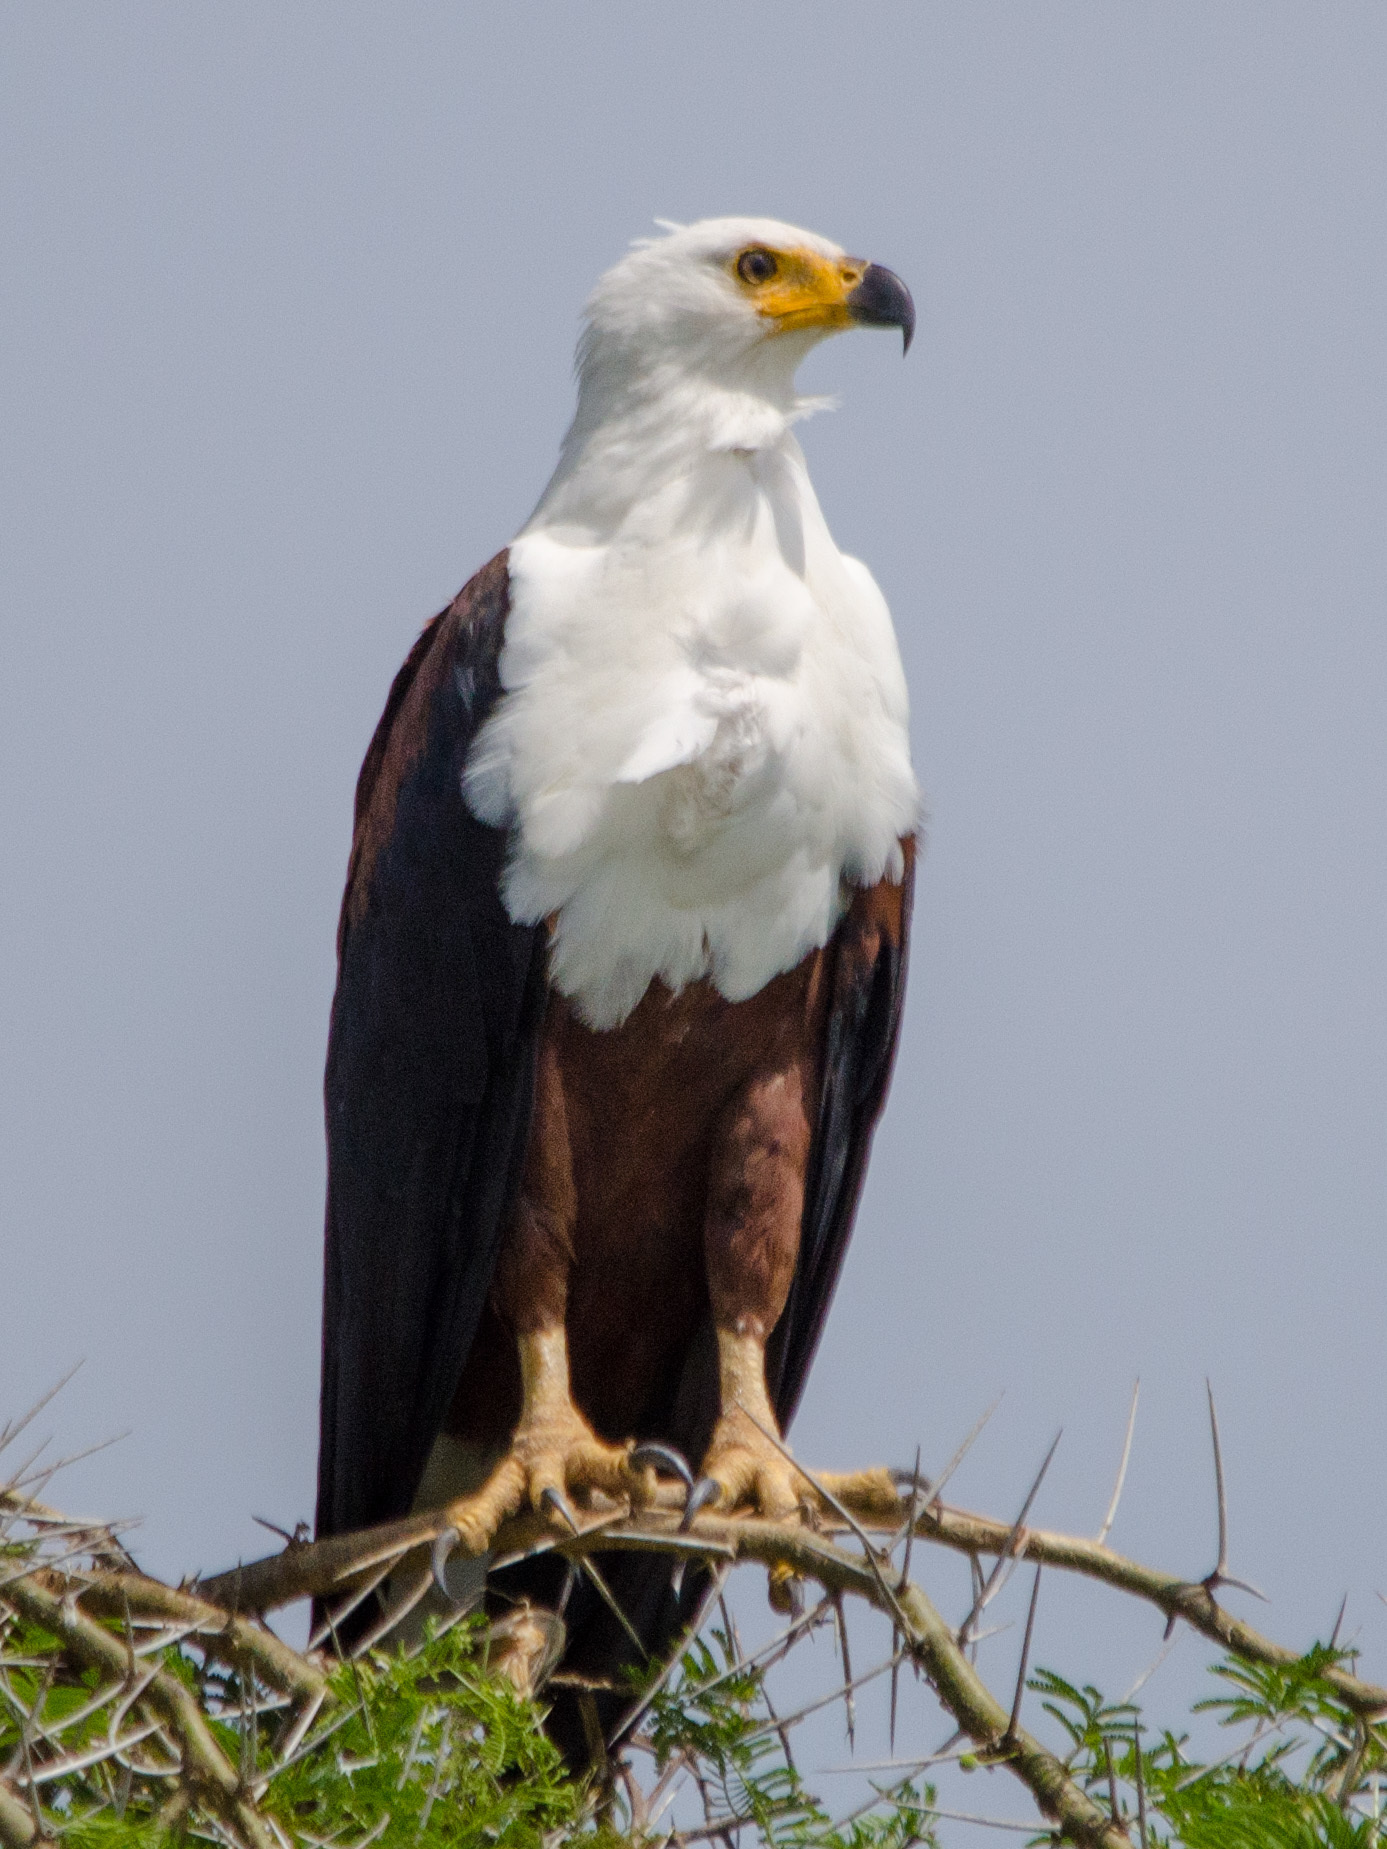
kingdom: Animalia
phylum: Chordata
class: Aves
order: Accipitriformes
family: Accipitridae
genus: Haliaeetus
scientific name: Haliaeetus vocifer
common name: African fish eagle
